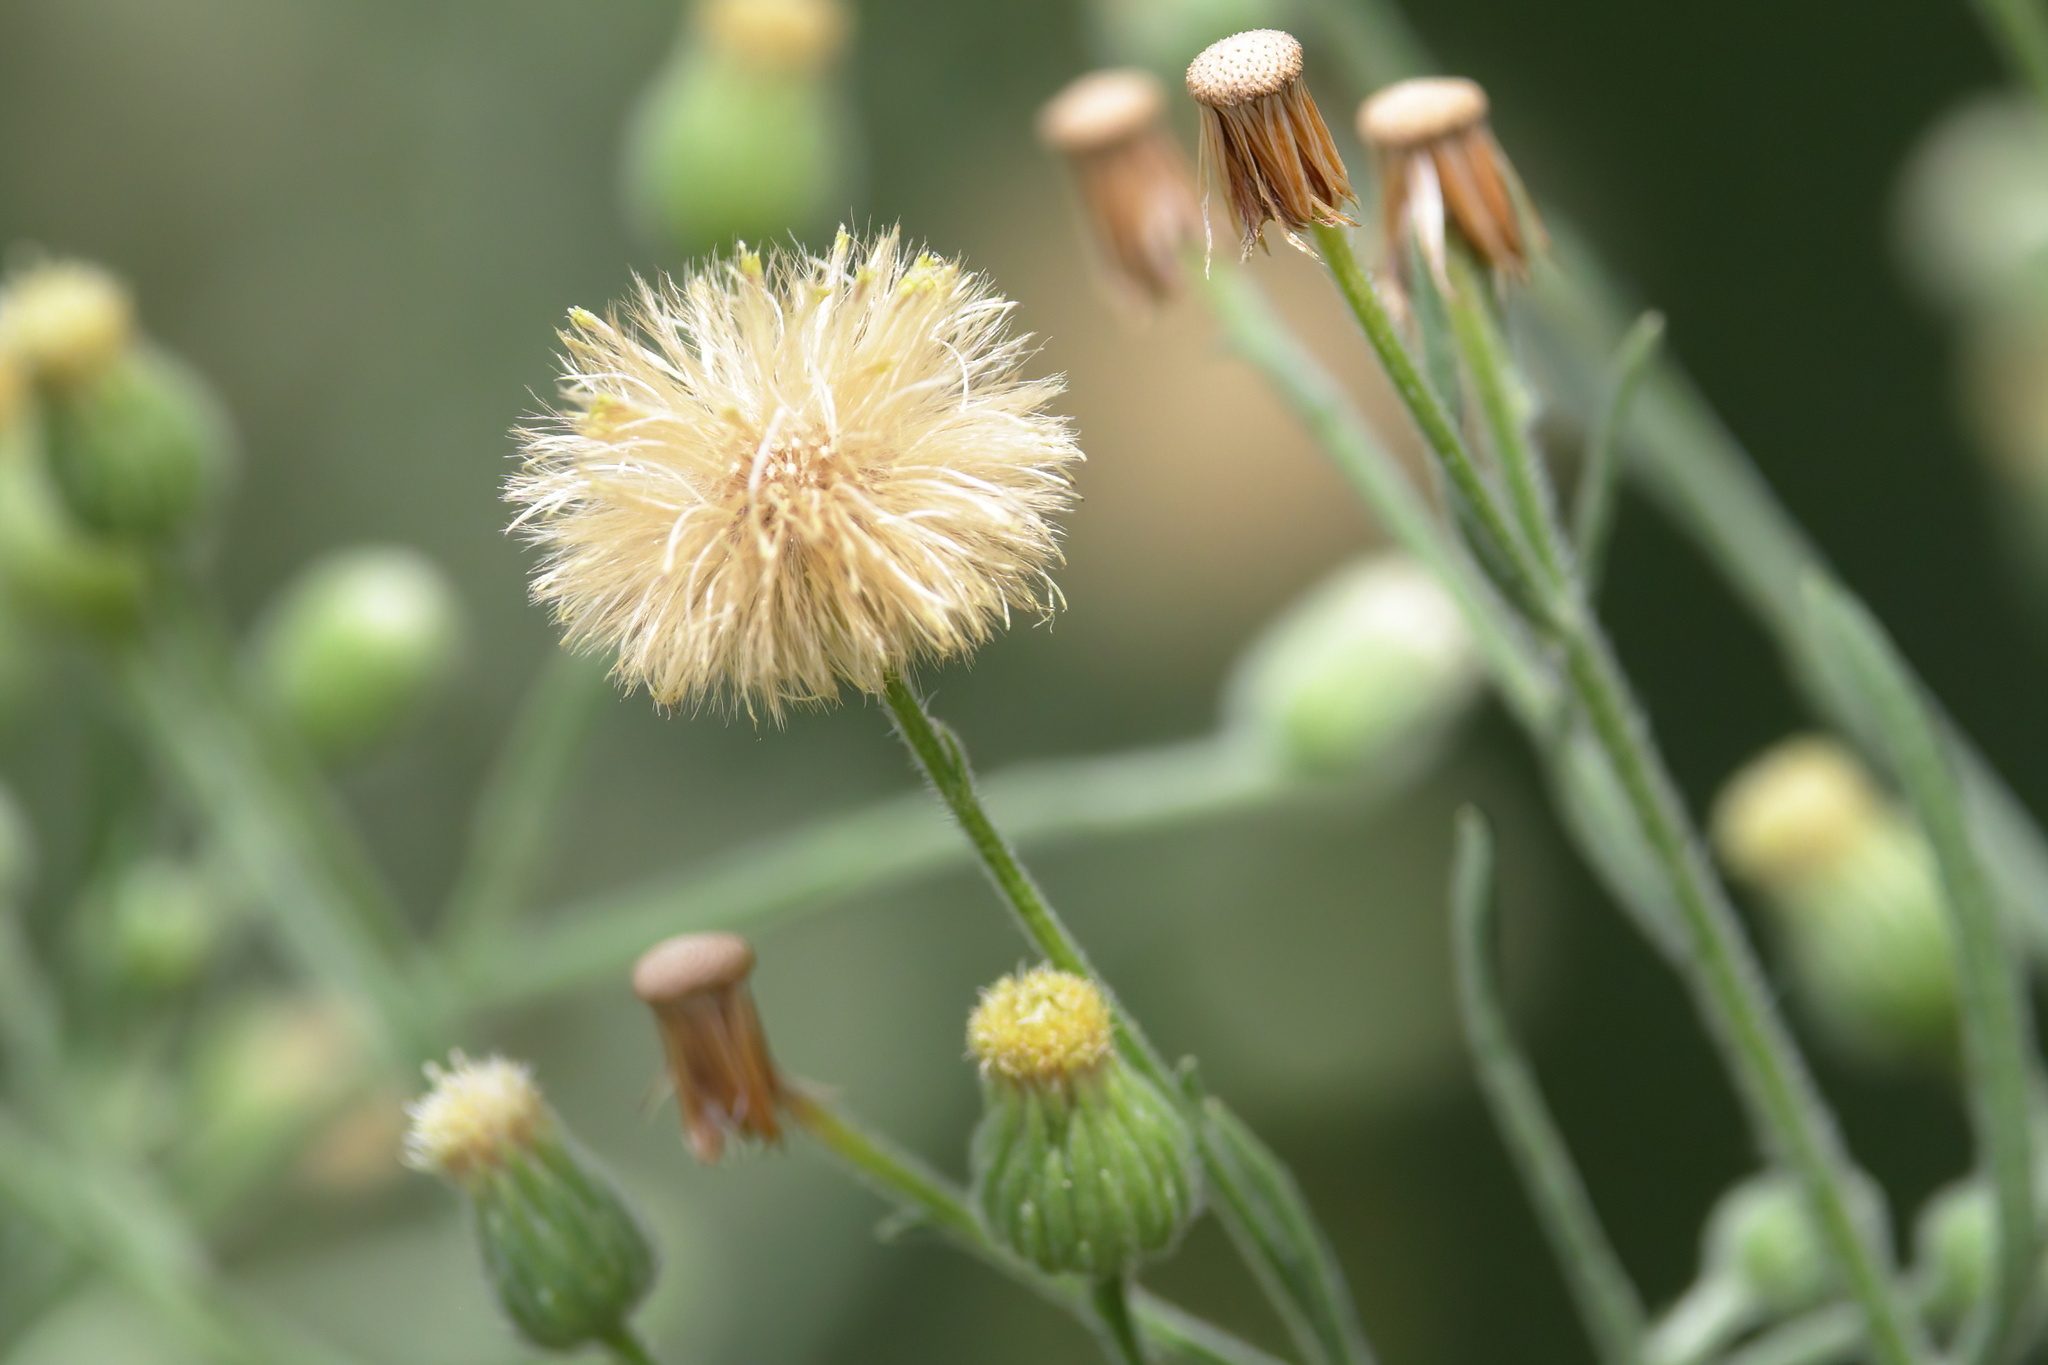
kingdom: Plantae
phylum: Tracheophyta
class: Magnoliopsida
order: Asterales
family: Asteraceae
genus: Erigeron
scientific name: Erigeron sumatrensis
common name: Daisy
